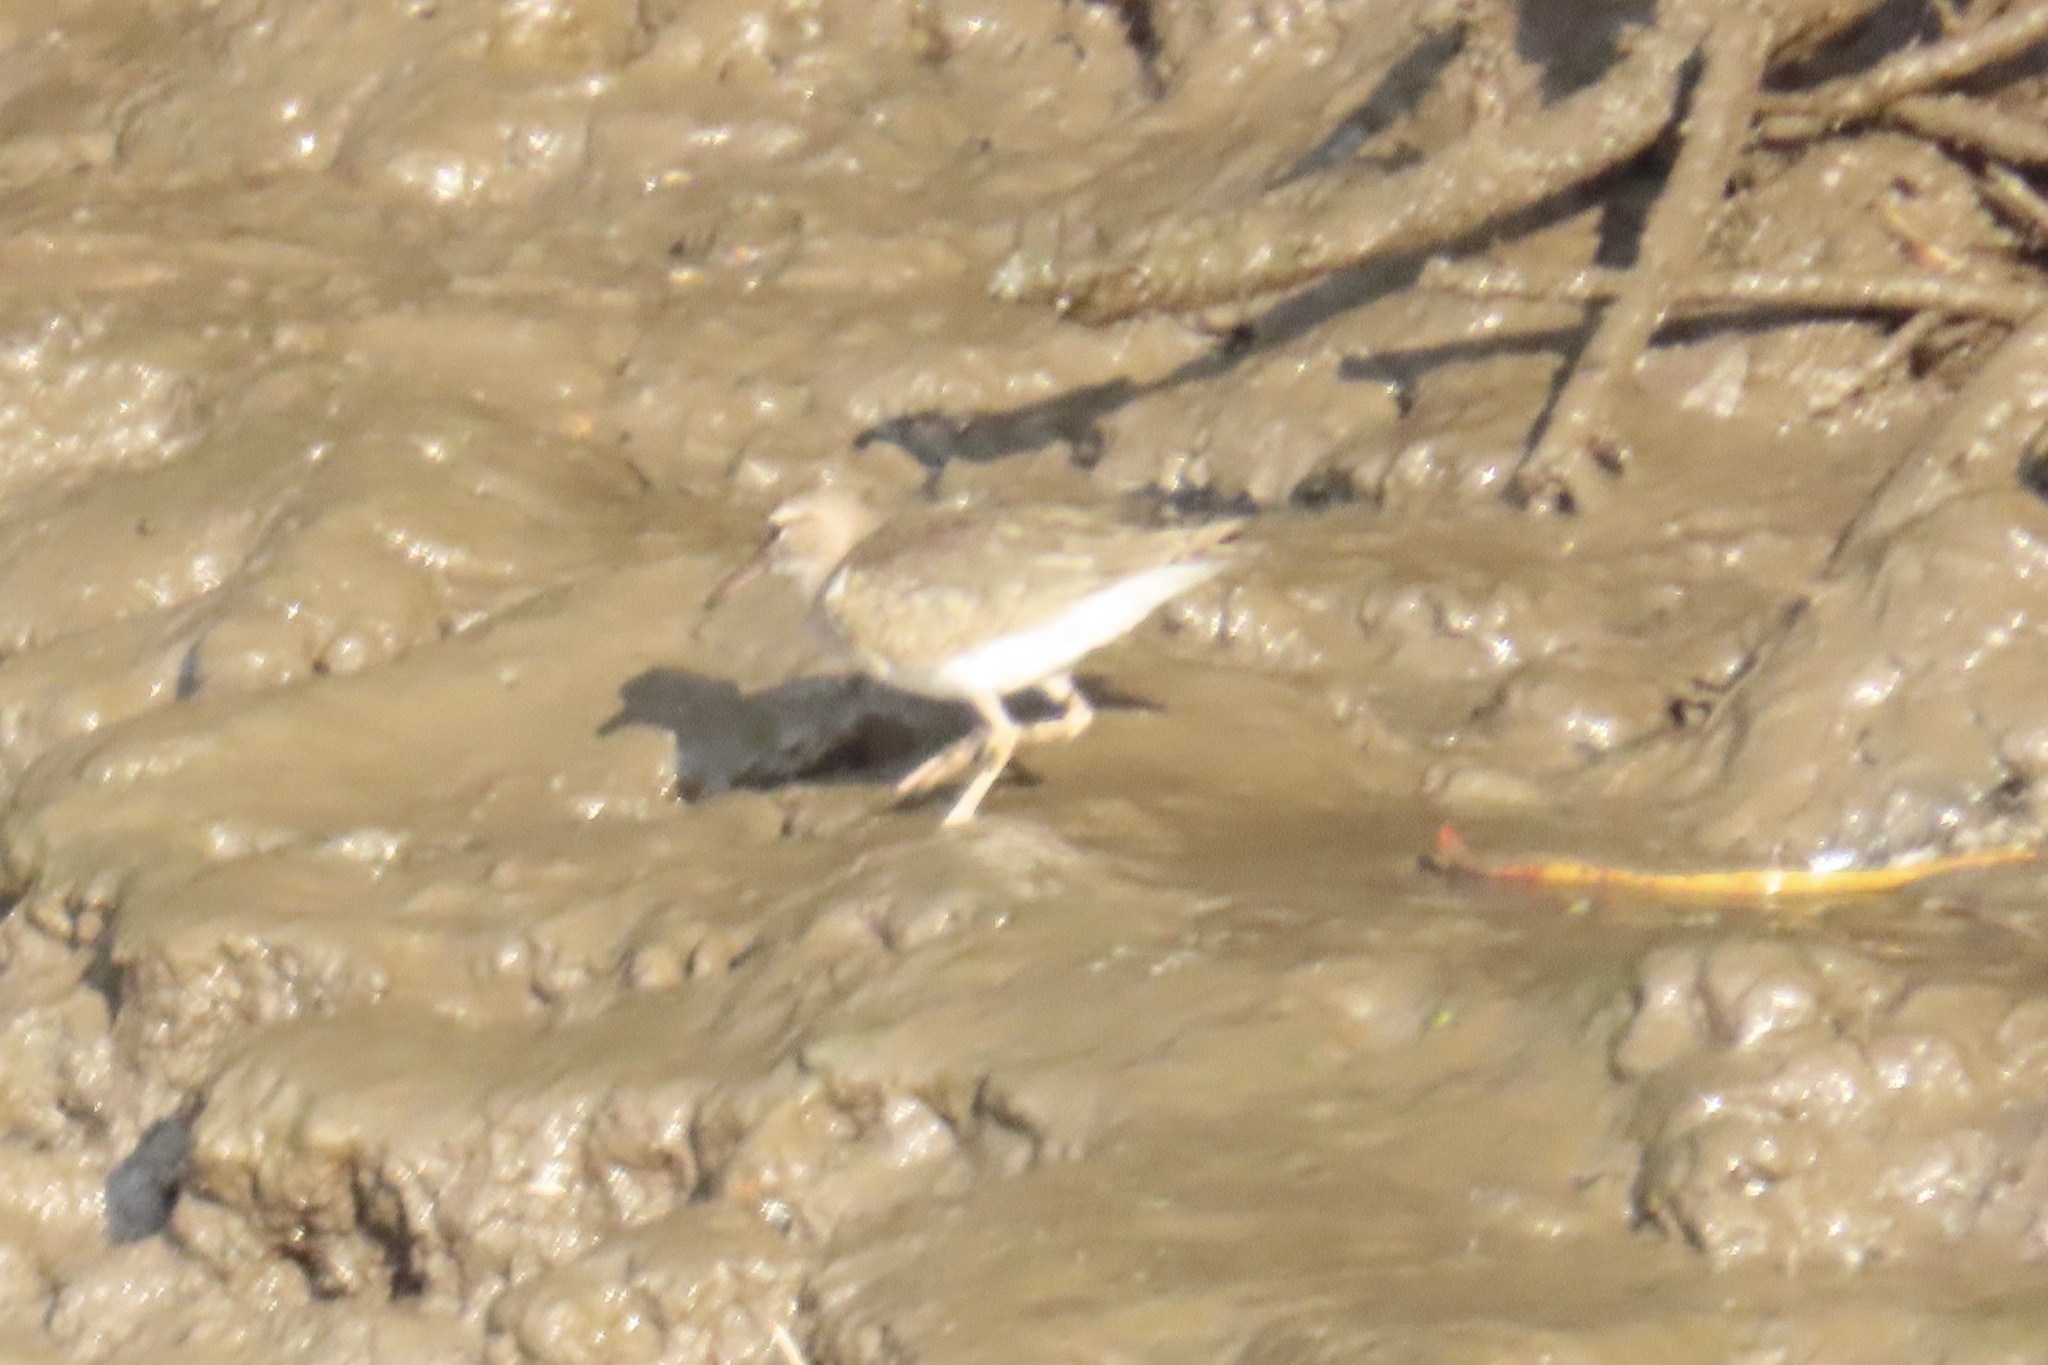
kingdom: Animalia
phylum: Chordata
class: Aves
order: Charadriiformes
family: Scolopacidae
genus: Actitis
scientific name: Actitis macularius
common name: Spotted sandpiper
